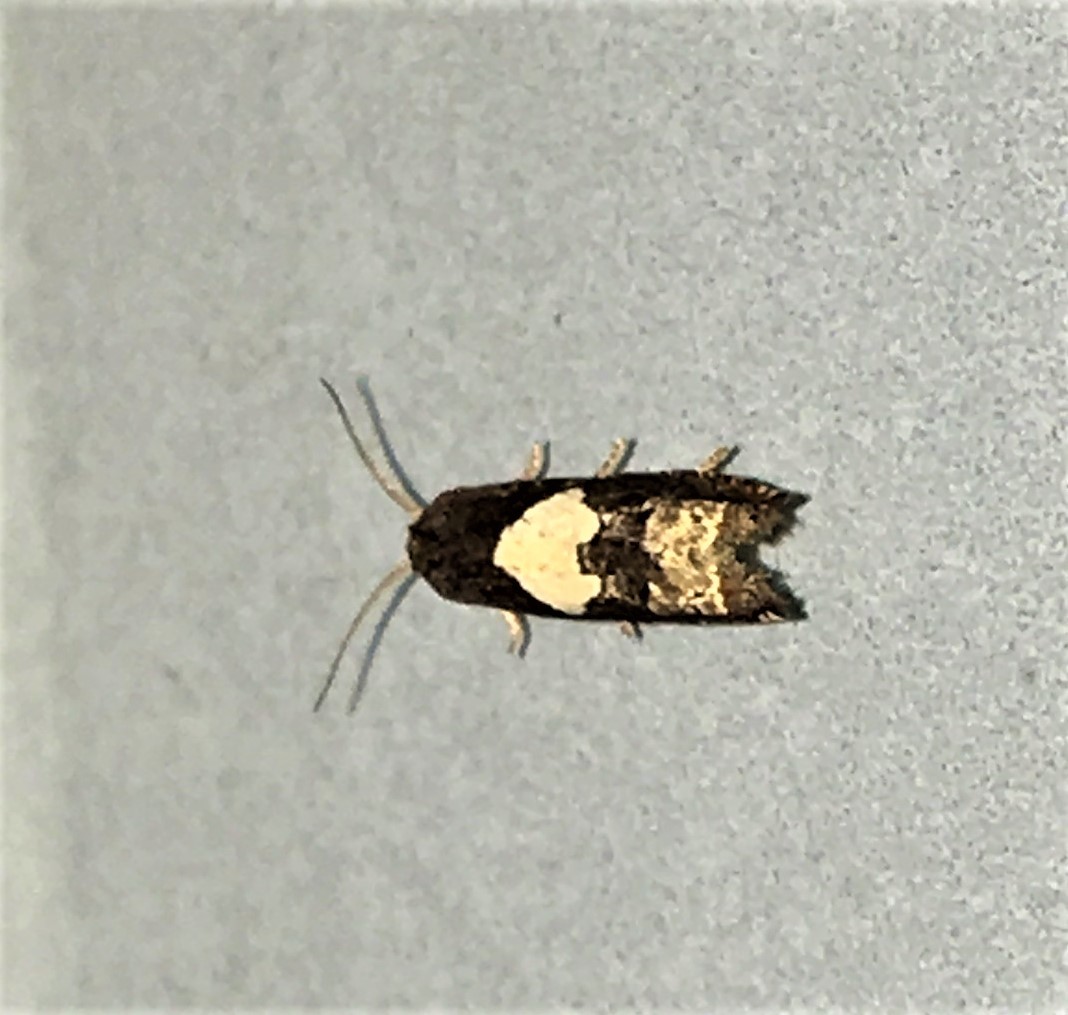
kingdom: Animalia
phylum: Arthropoda
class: Insecta
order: Lepidoptera
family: Tortricidae
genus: Epiblema
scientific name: Epiblema otiosana
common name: Bidens borer moth
